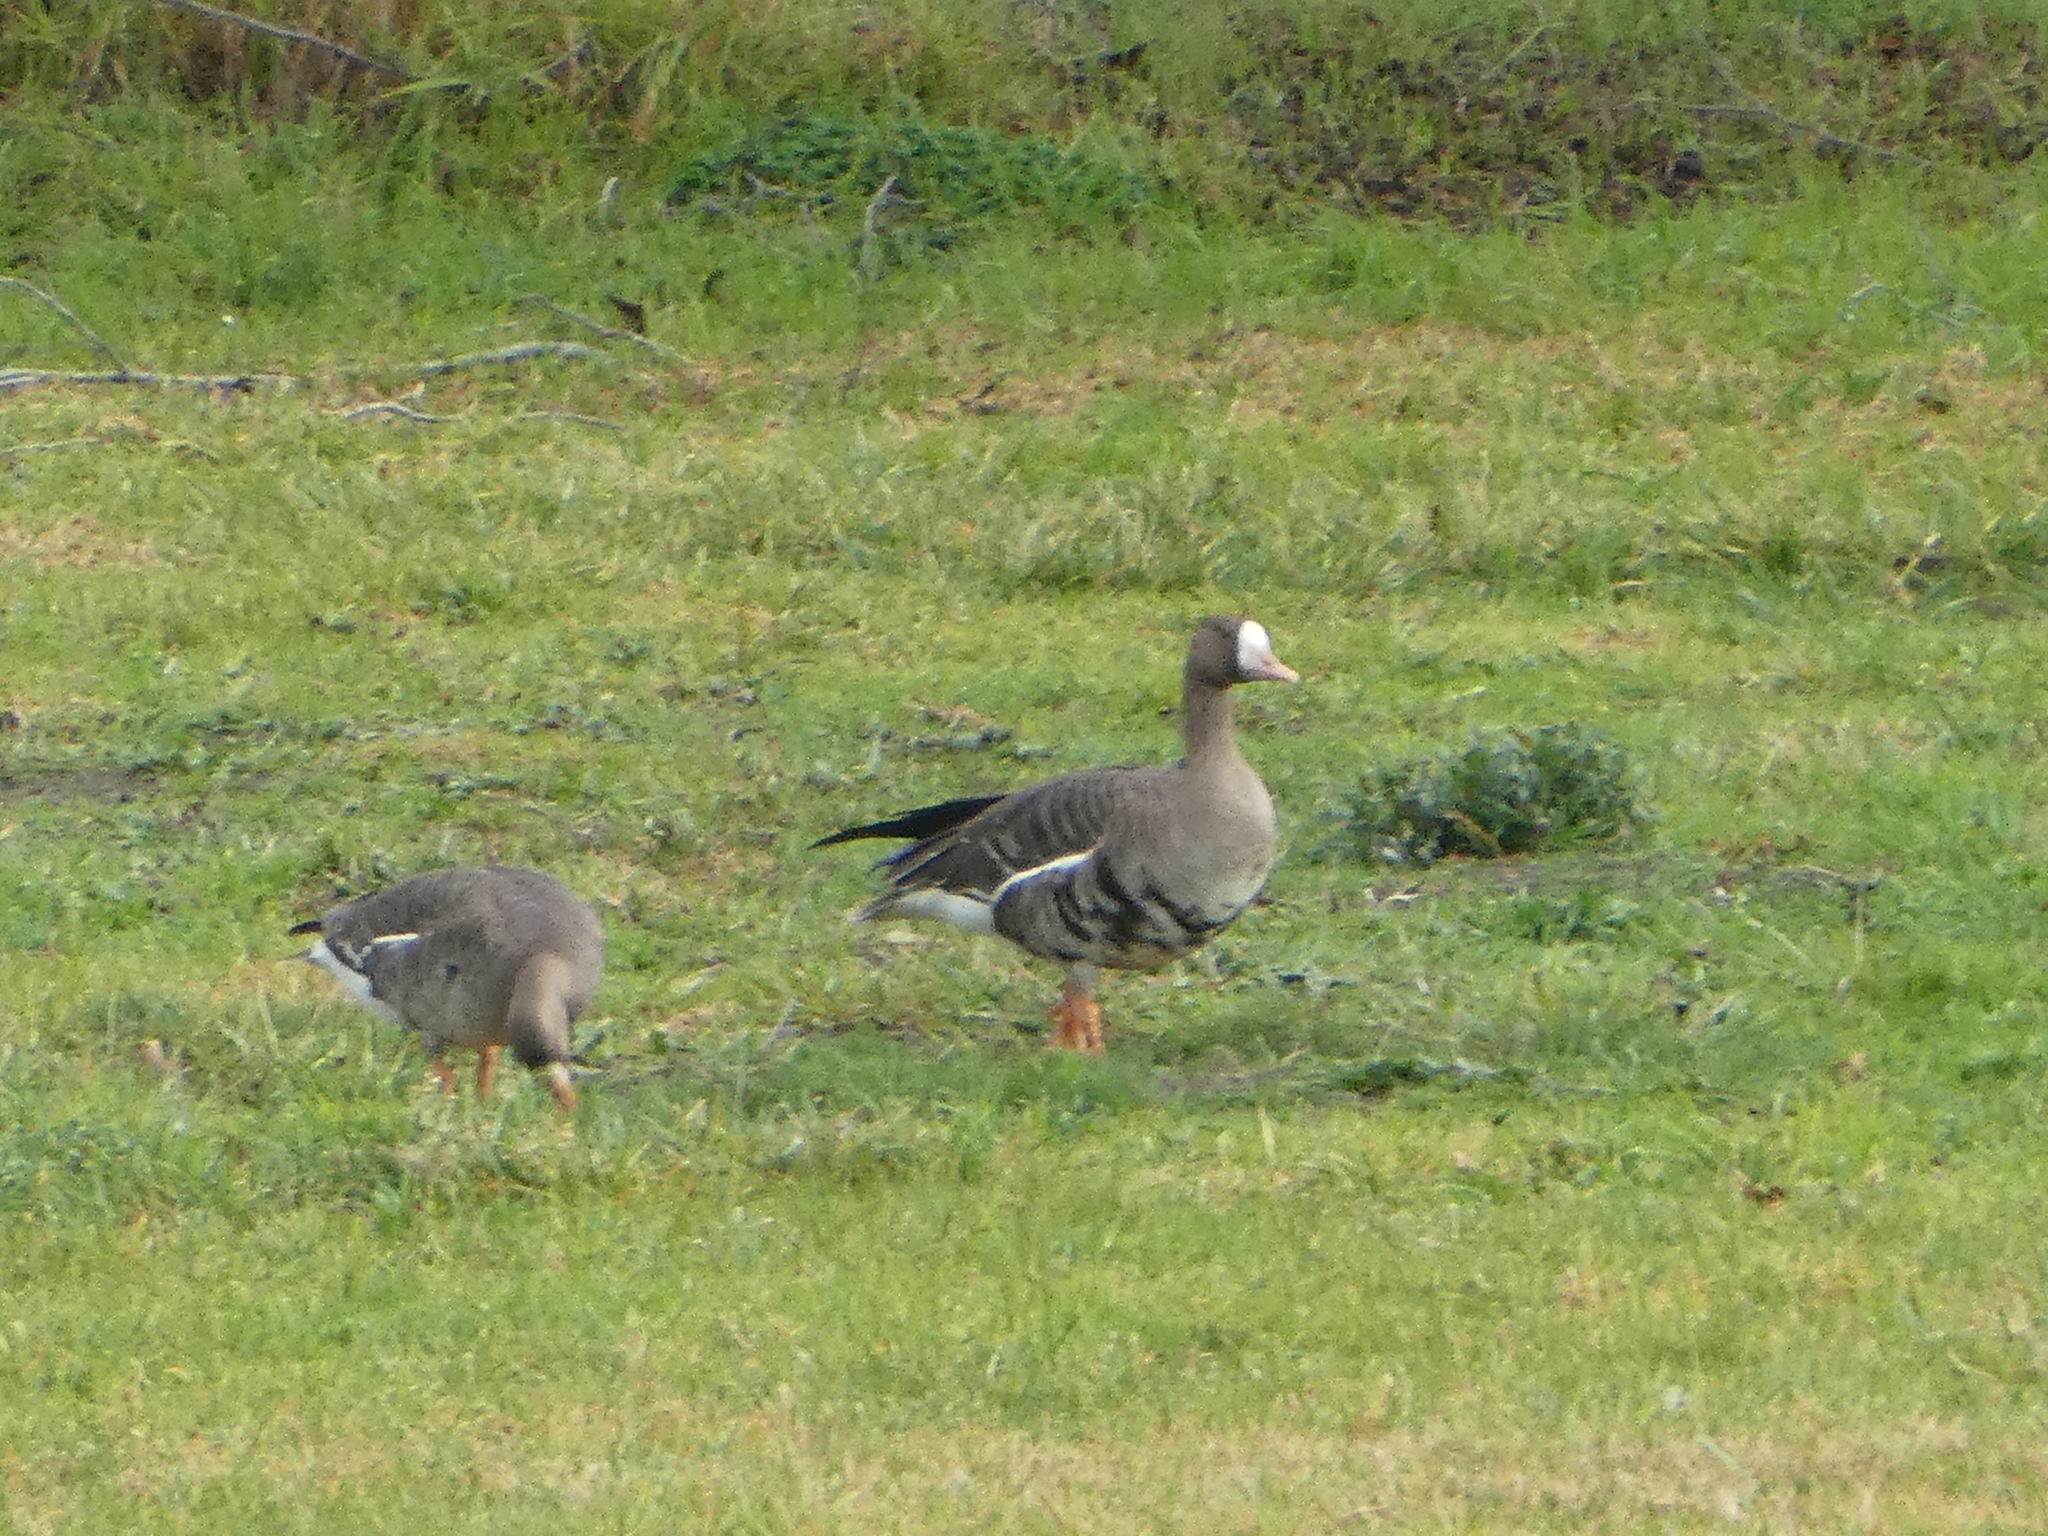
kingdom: Animalia
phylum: Chordata
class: Aves
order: Anseriformes
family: Anatidae
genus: Anser
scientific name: Anser albifrons
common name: Greater white-fronted goose
